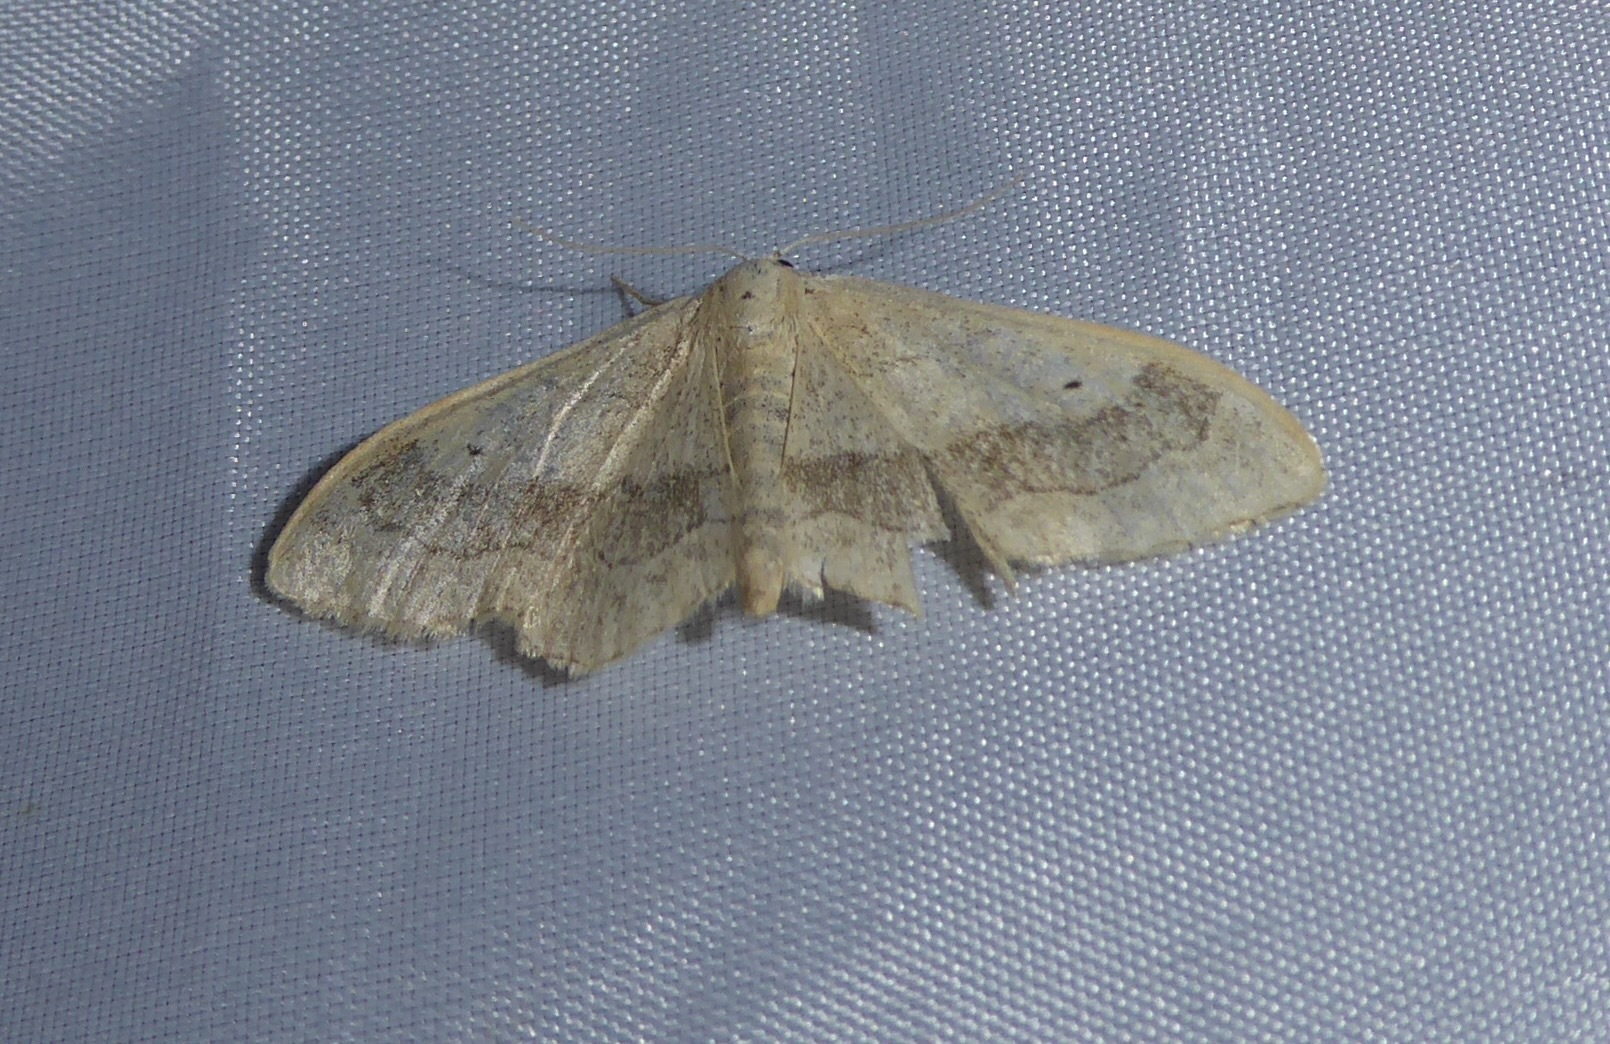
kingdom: Animalia
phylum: Arthropoda
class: Insecta
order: Lepidoptera
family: Geometridae
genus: Idaea
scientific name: Idaea aversata
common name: Riband wave
